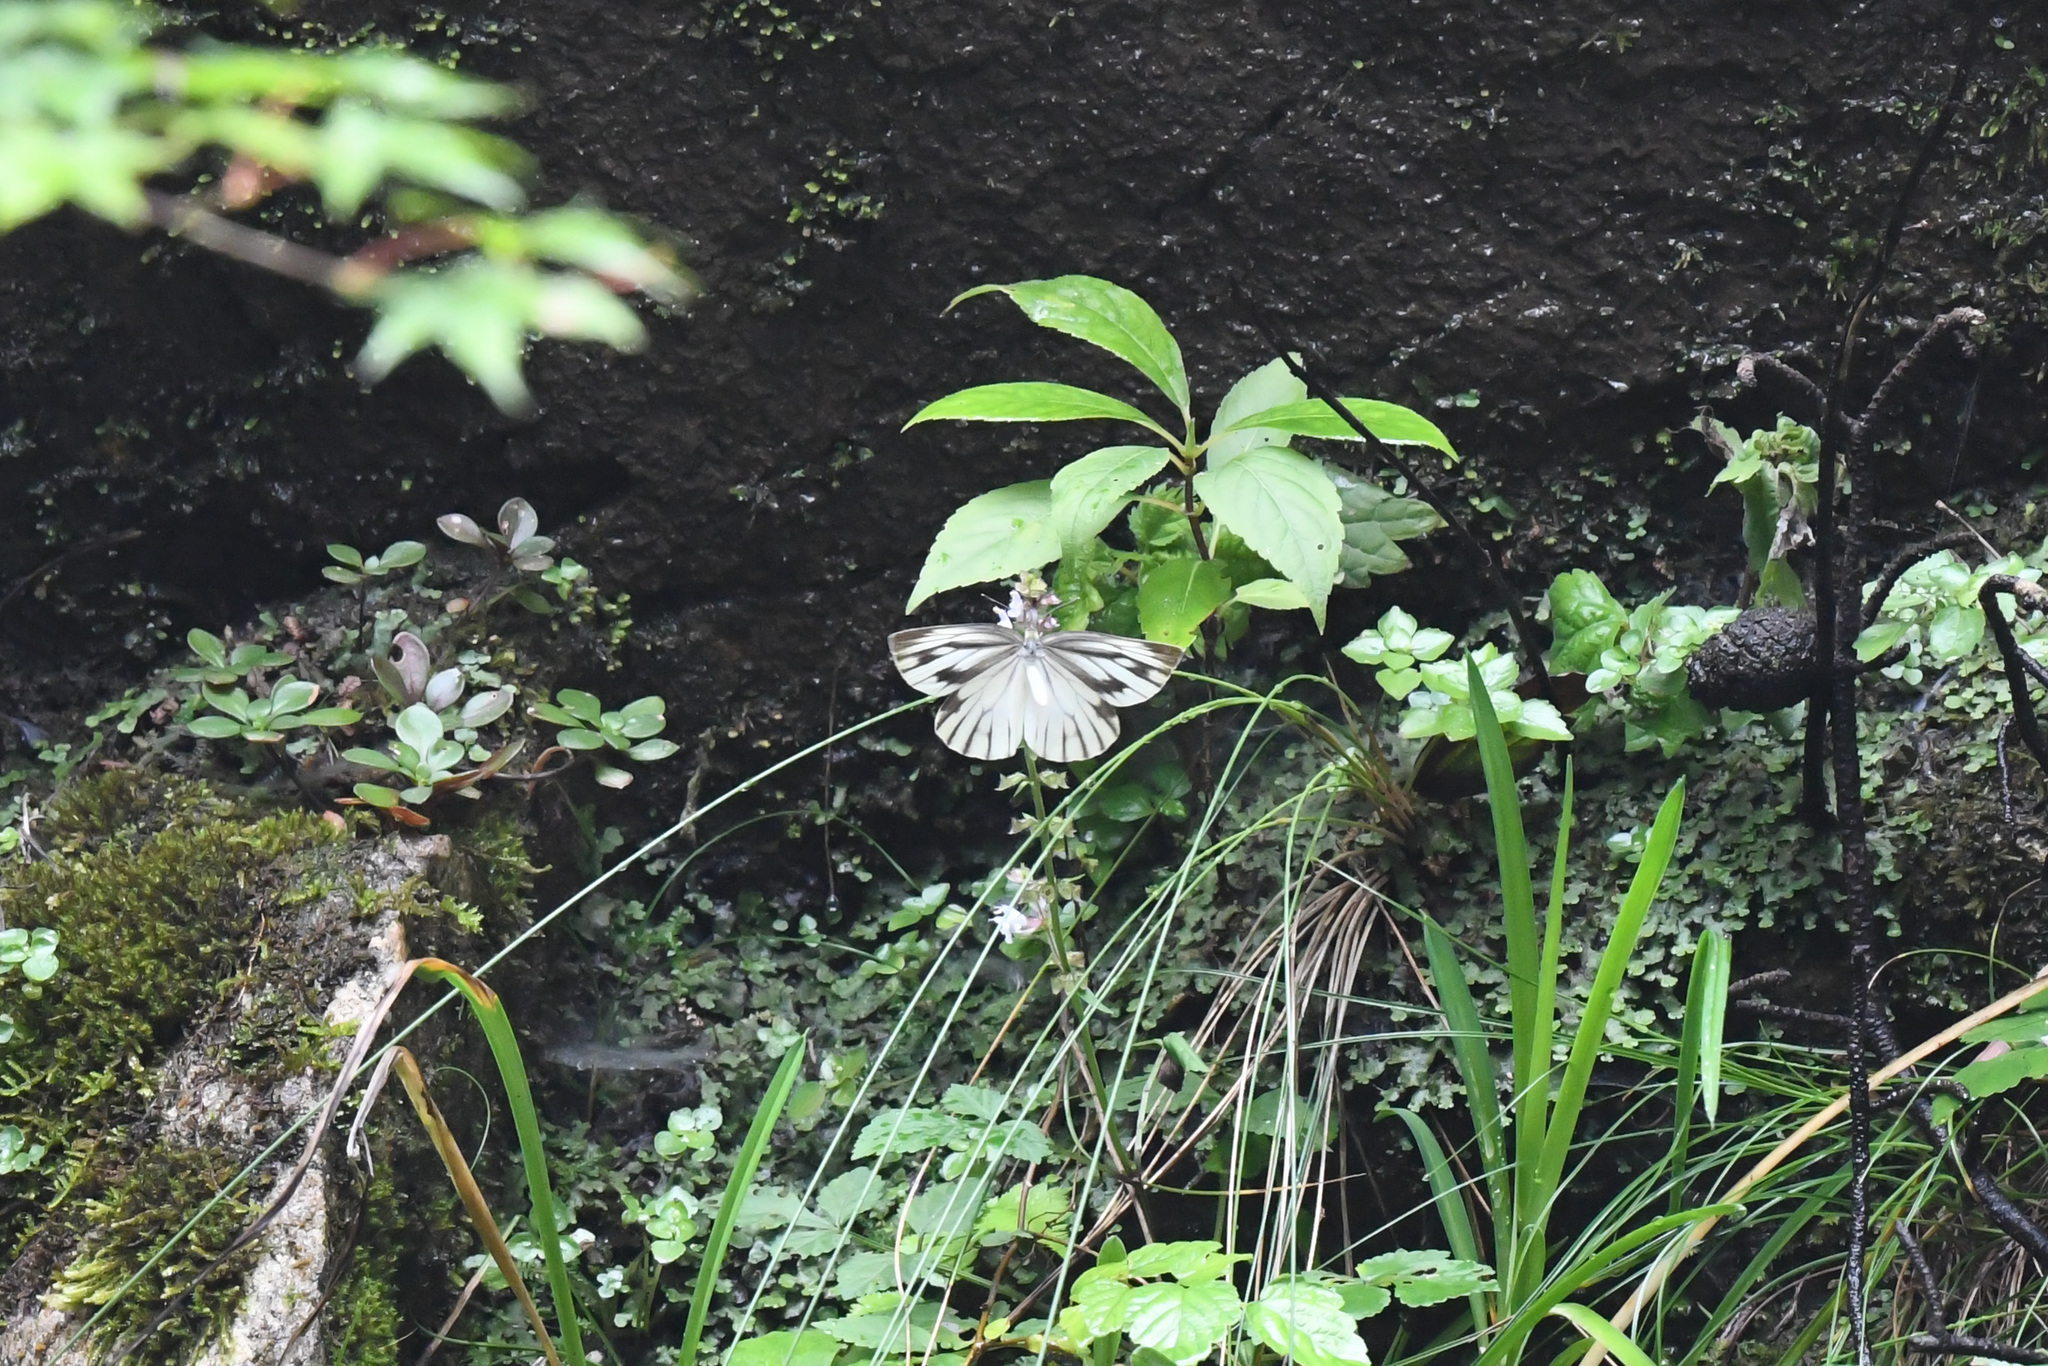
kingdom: Animalia
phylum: Arthropoda
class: Insecta
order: Lepidoptera
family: Pieridae
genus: Pieris
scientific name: Pieris latouchei
